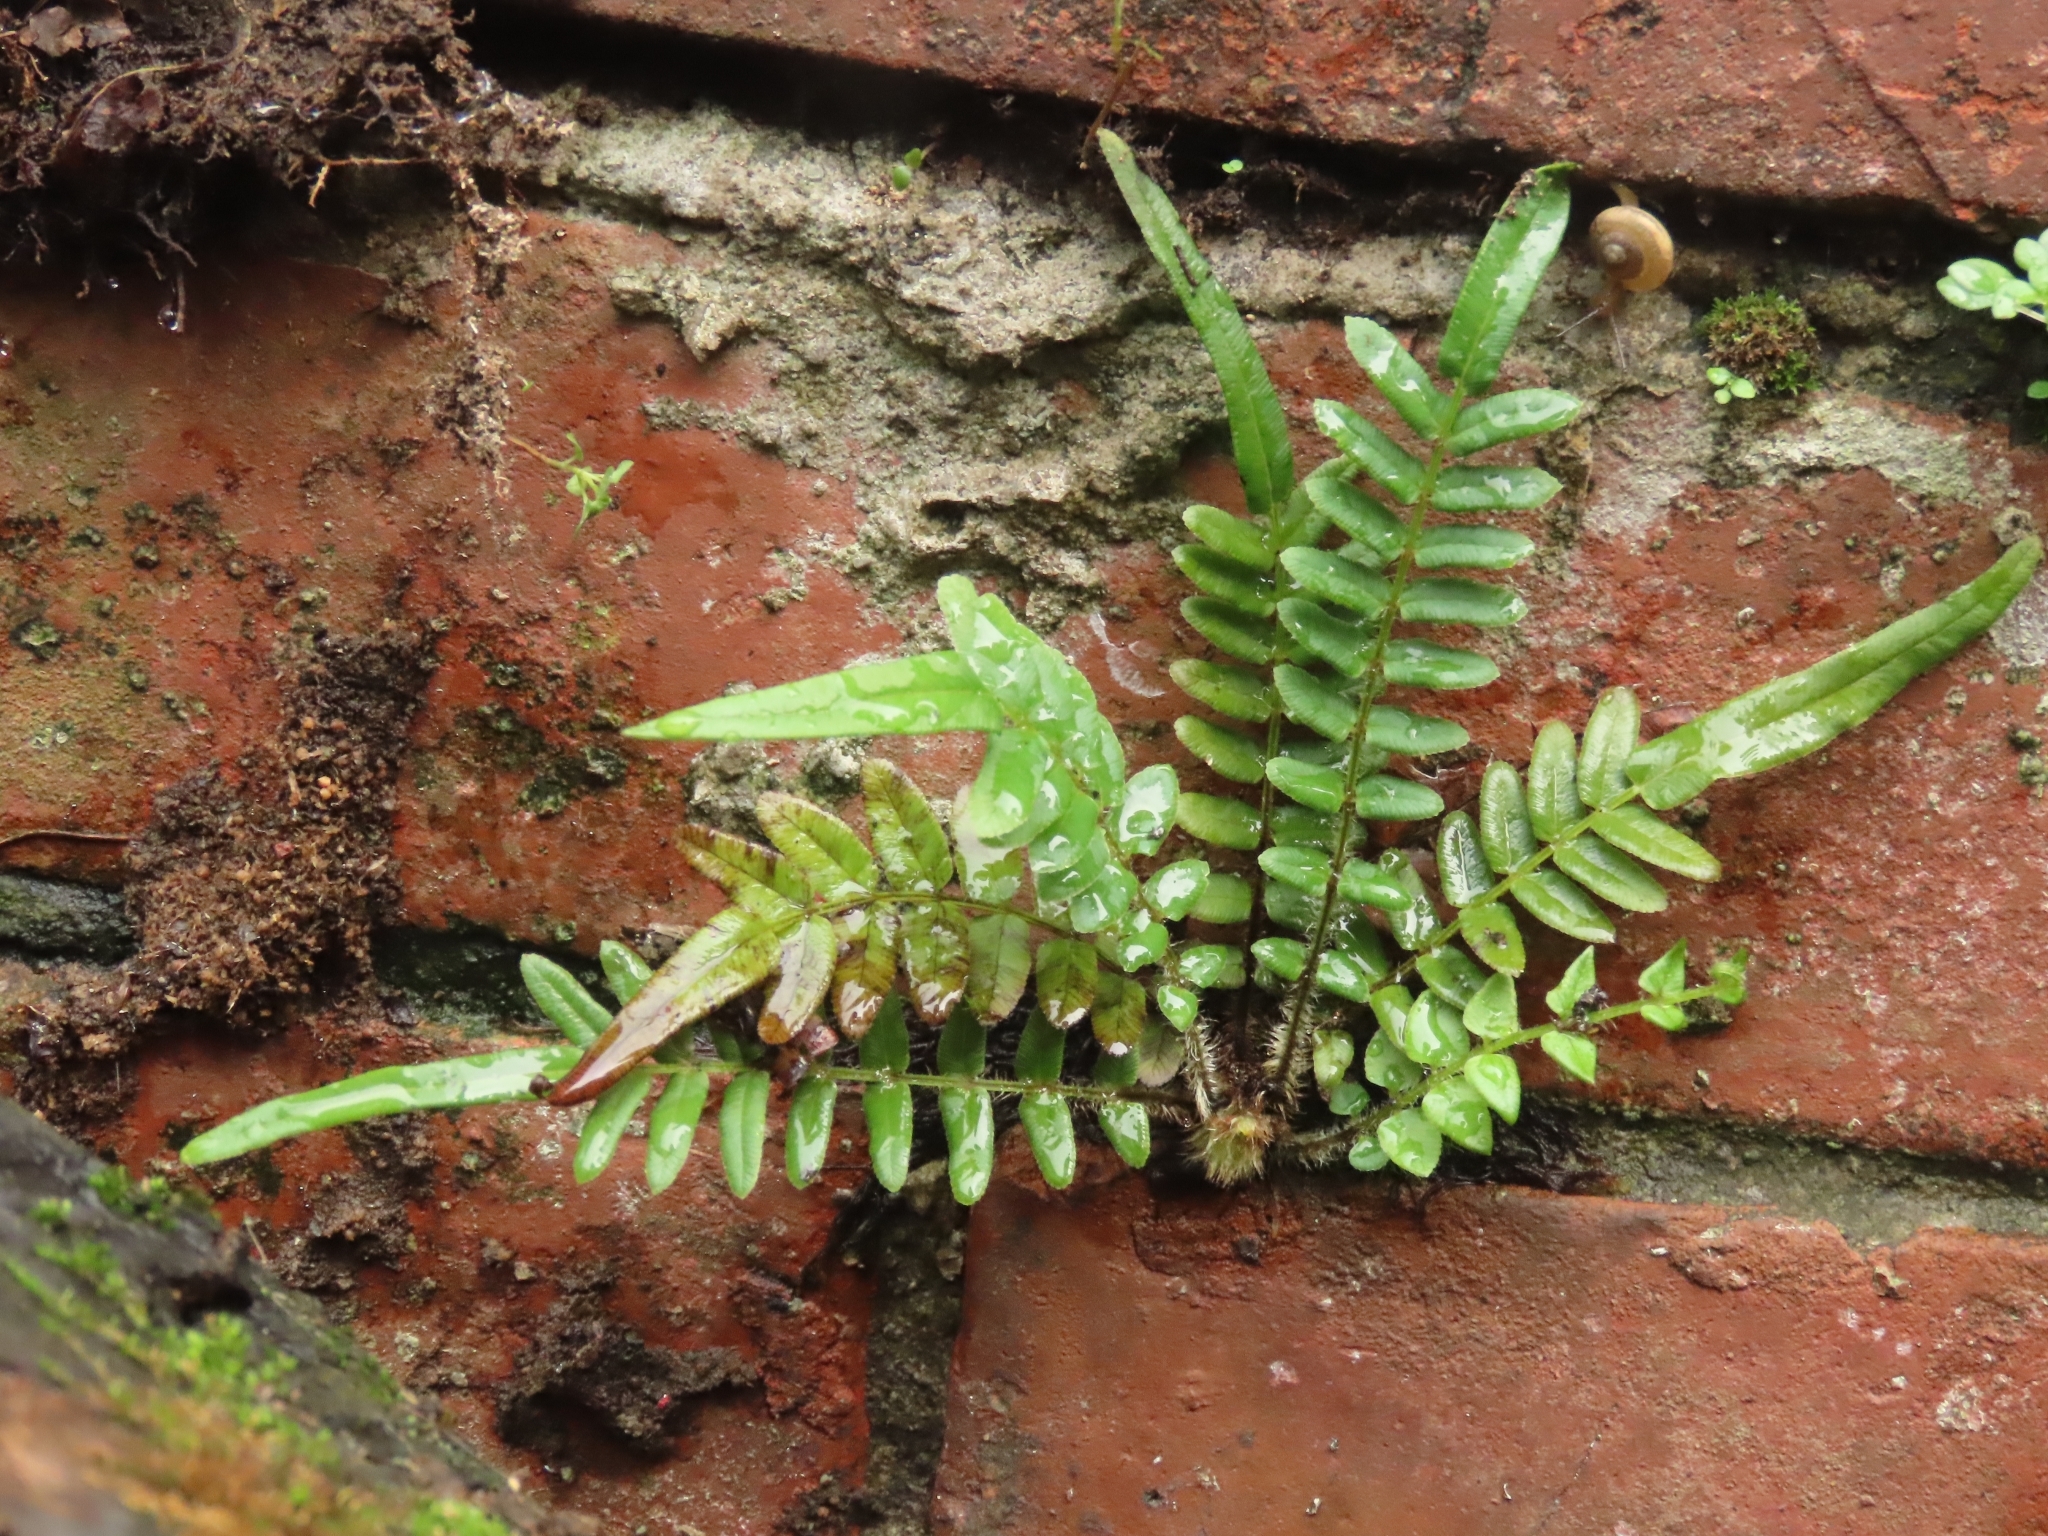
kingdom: Plantae
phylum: Tracheophyta
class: Polypodiopsida
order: Polypodiales
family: Pteridaceae
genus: Pteris
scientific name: Pteris vittata
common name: Ladder brake
